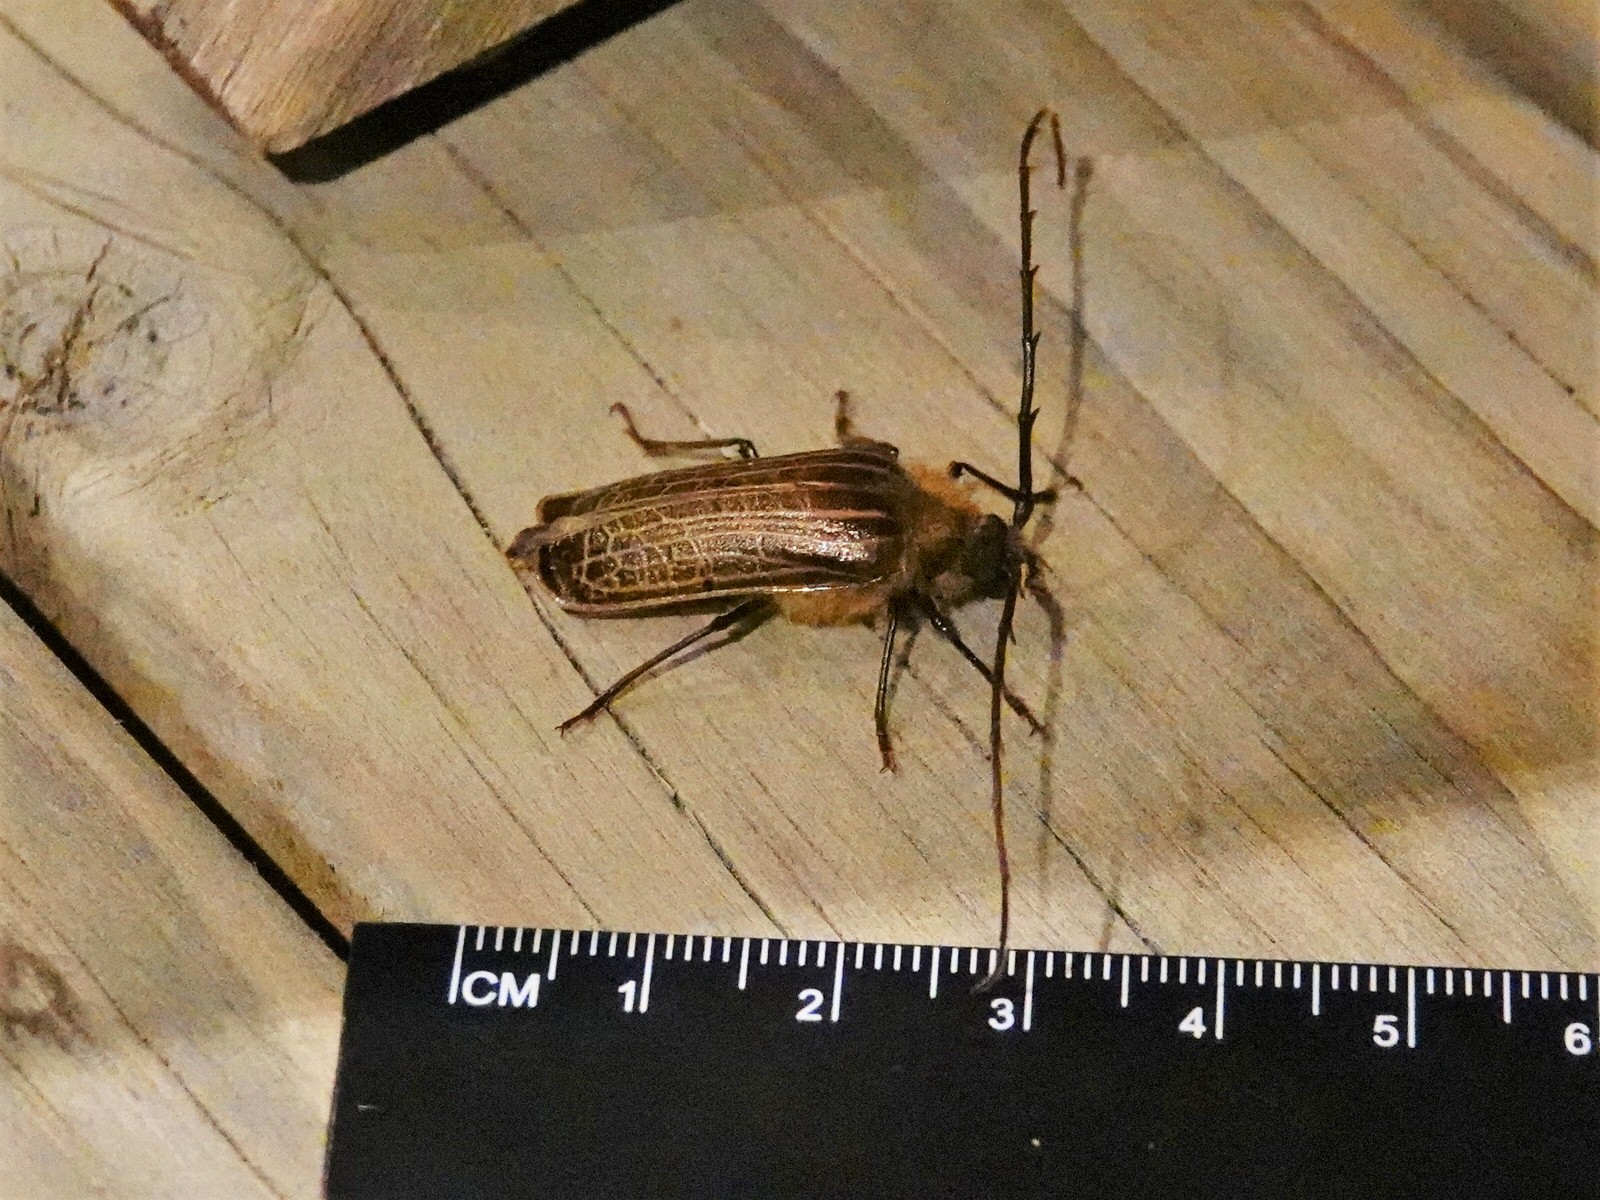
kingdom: Animalia
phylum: Arthropoda
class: Insecta
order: Coleoptera
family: Cerambycidae
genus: Prionoplus
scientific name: Prionoplus reticularis
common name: Huhu beetle
